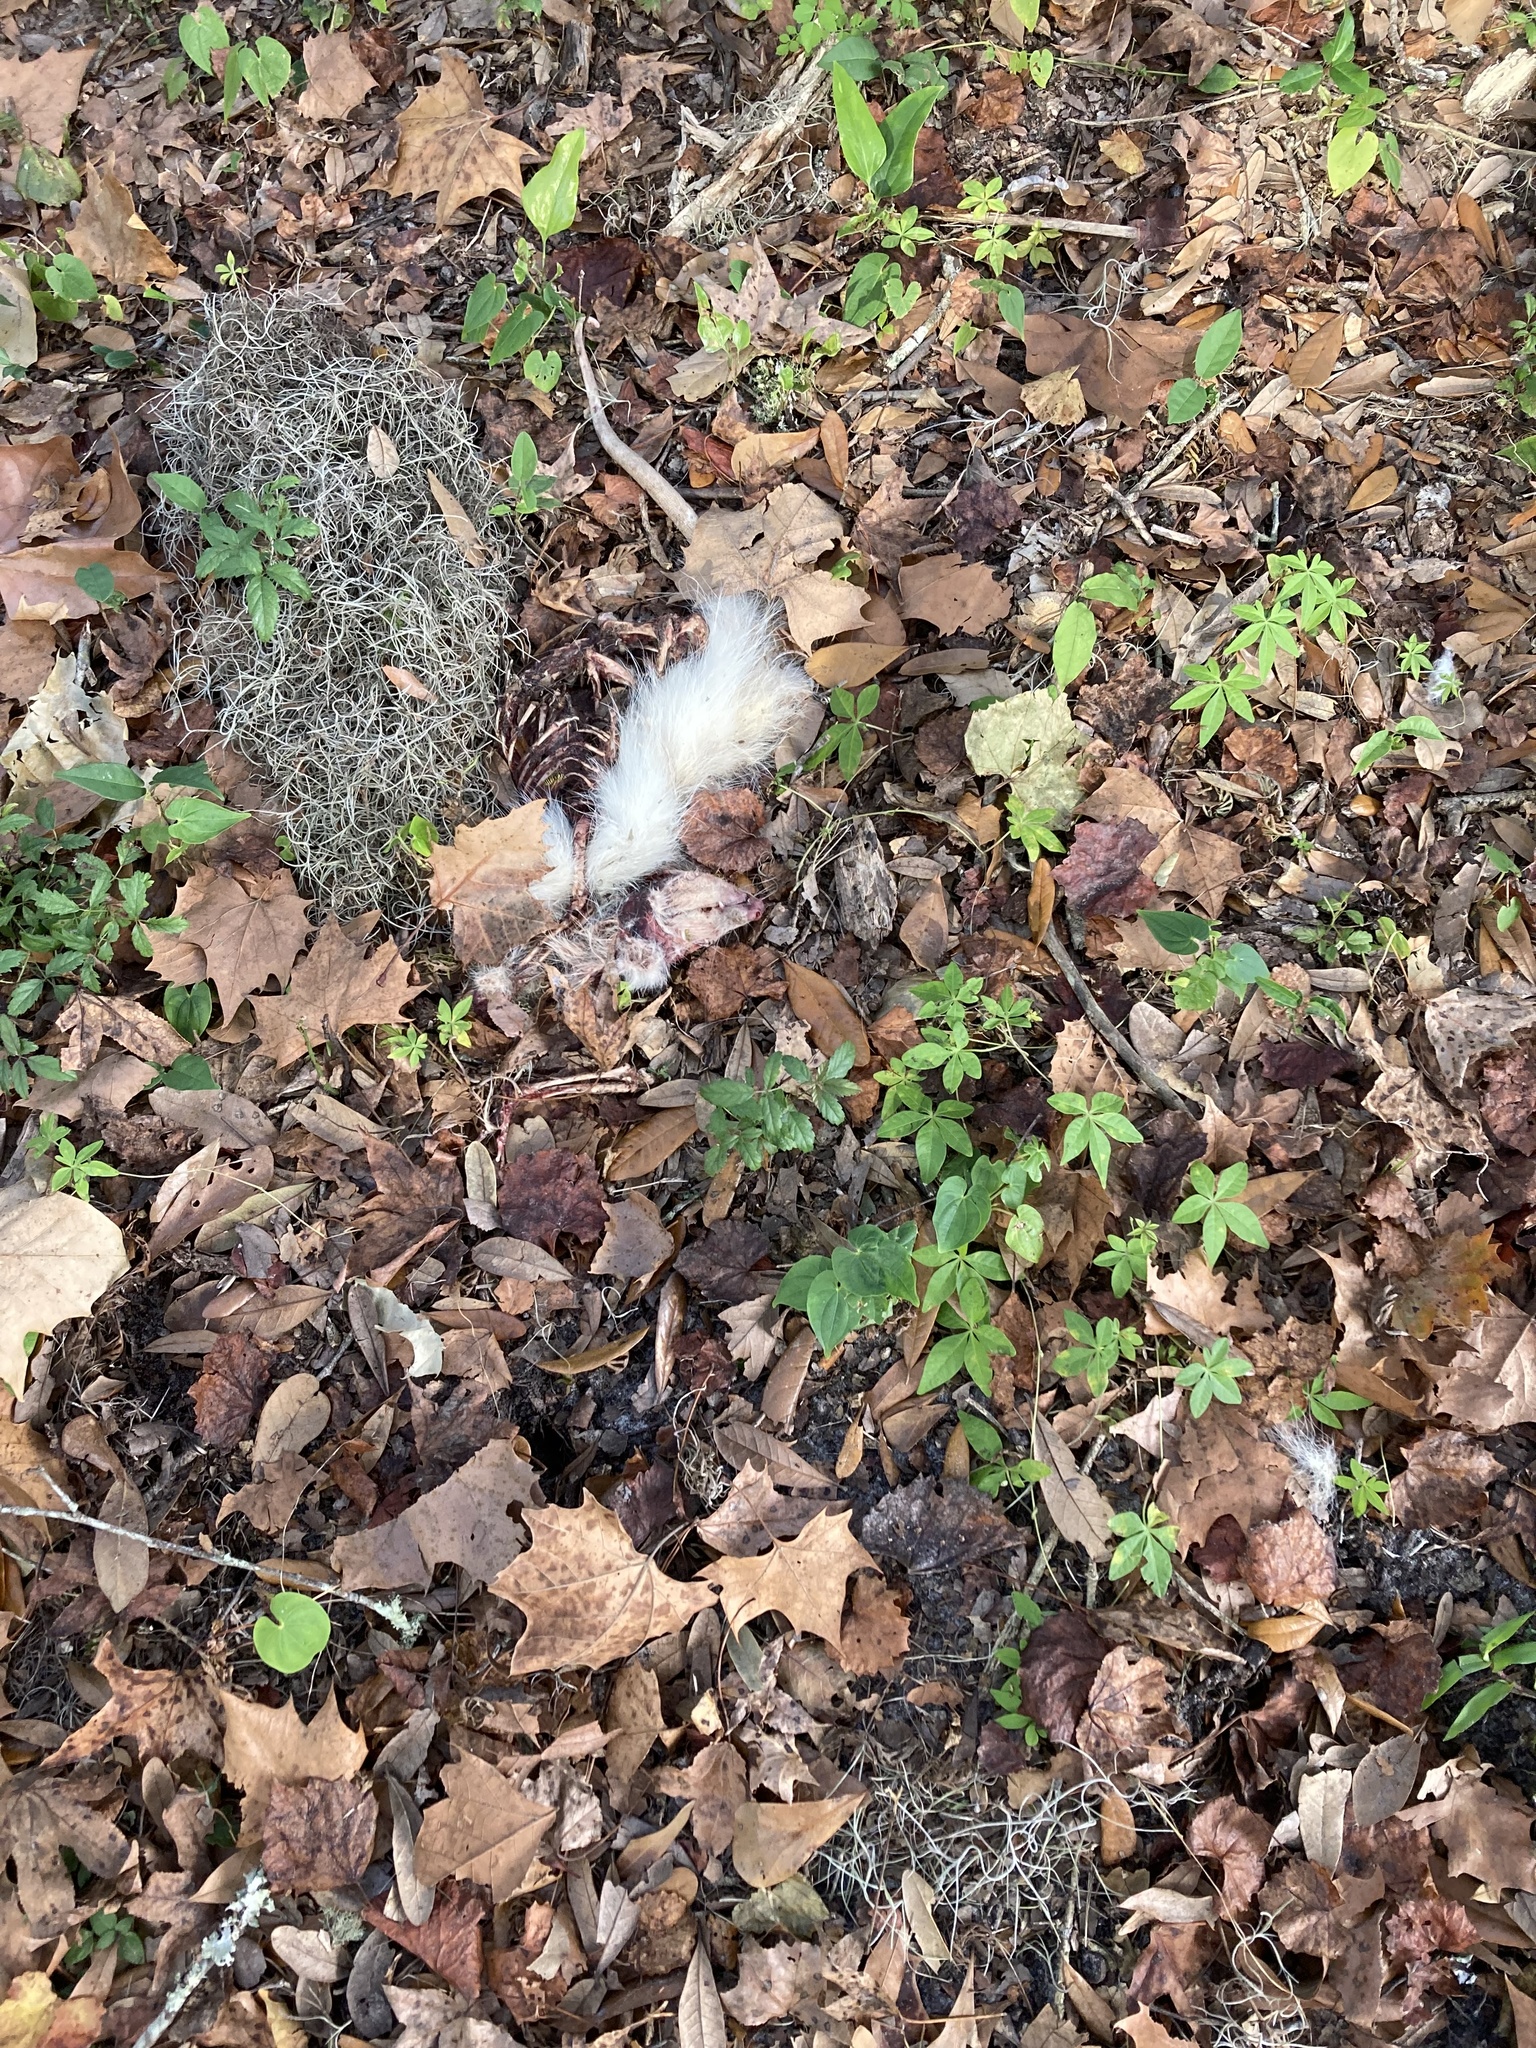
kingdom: Animalia
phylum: Chordata
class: Mammalia
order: Didelphimorphia
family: Didelphidae
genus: Didelphis
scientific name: Didelphis virginiana
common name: Virginia opossum
